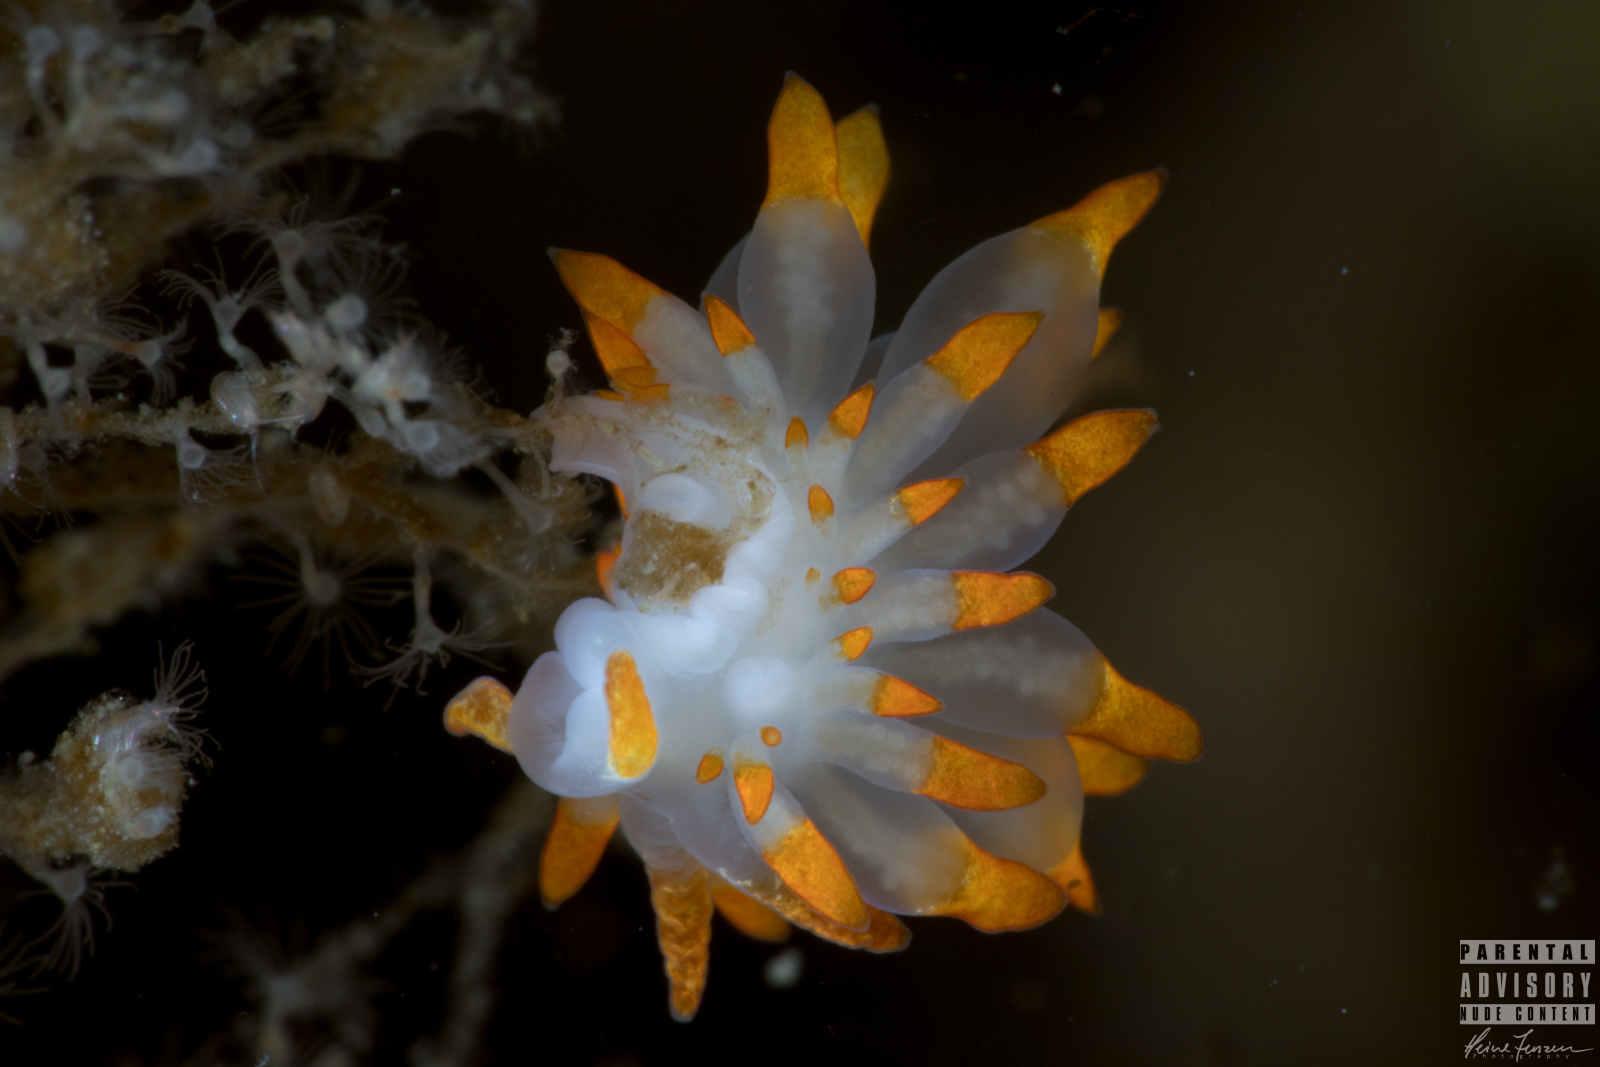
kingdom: Animalia
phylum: Mollusca
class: Gastropoda
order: Nudibranchia
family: Eubranchidae
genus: Amphorina
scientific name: Amphorina farrani
